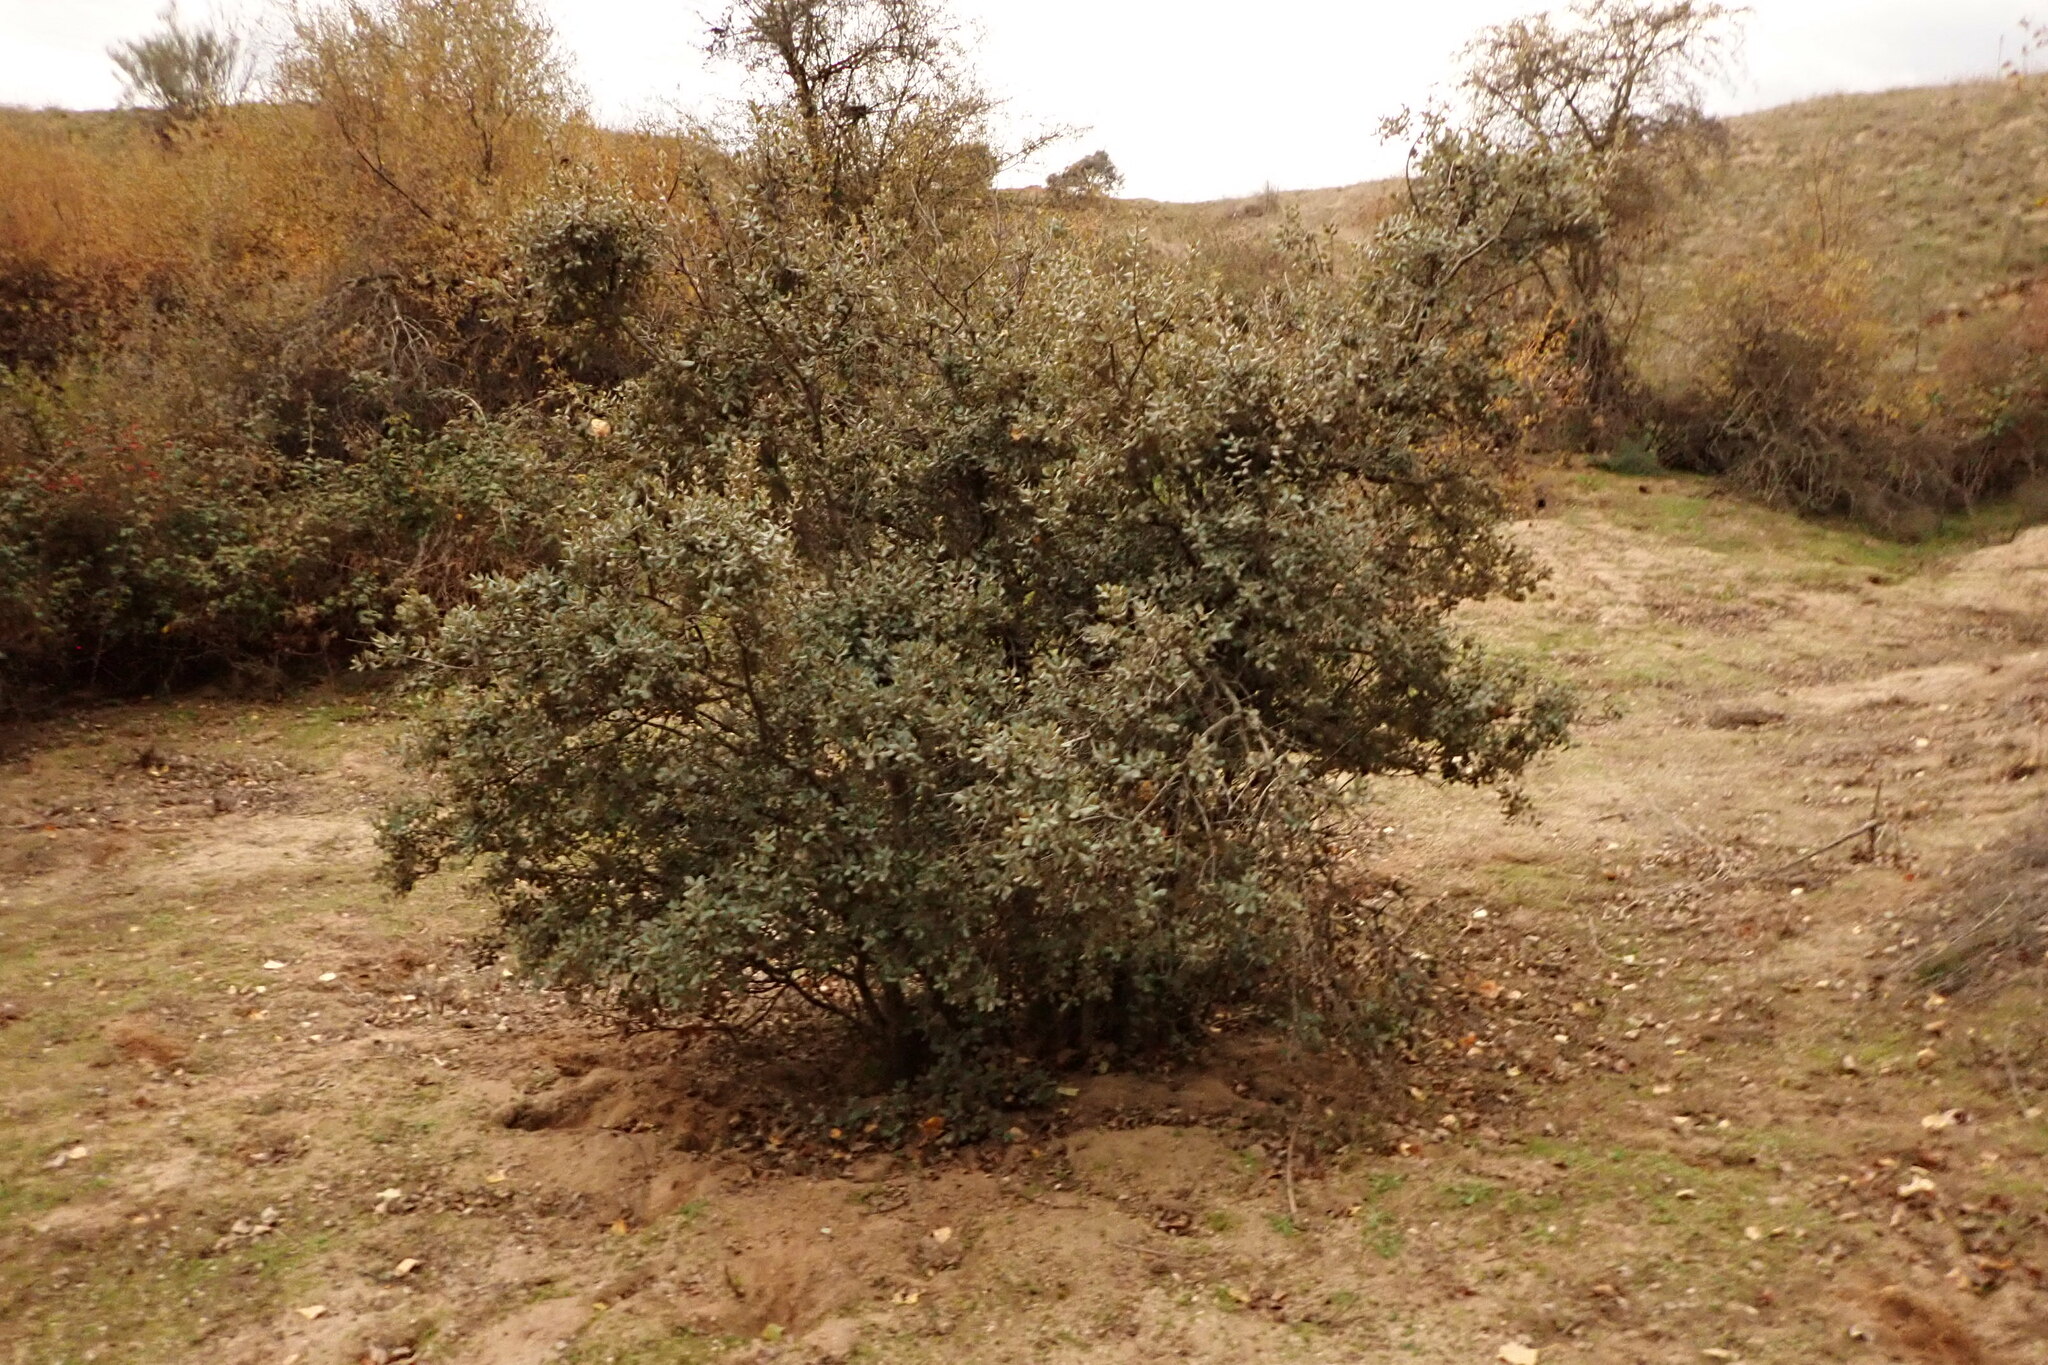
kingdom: Plantae
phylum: Tracheophyta
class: Magnoliopsida
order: Fagales
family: Fagaceae
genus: Quercus
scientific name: Quercus rotundifolia
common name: Holm oak
